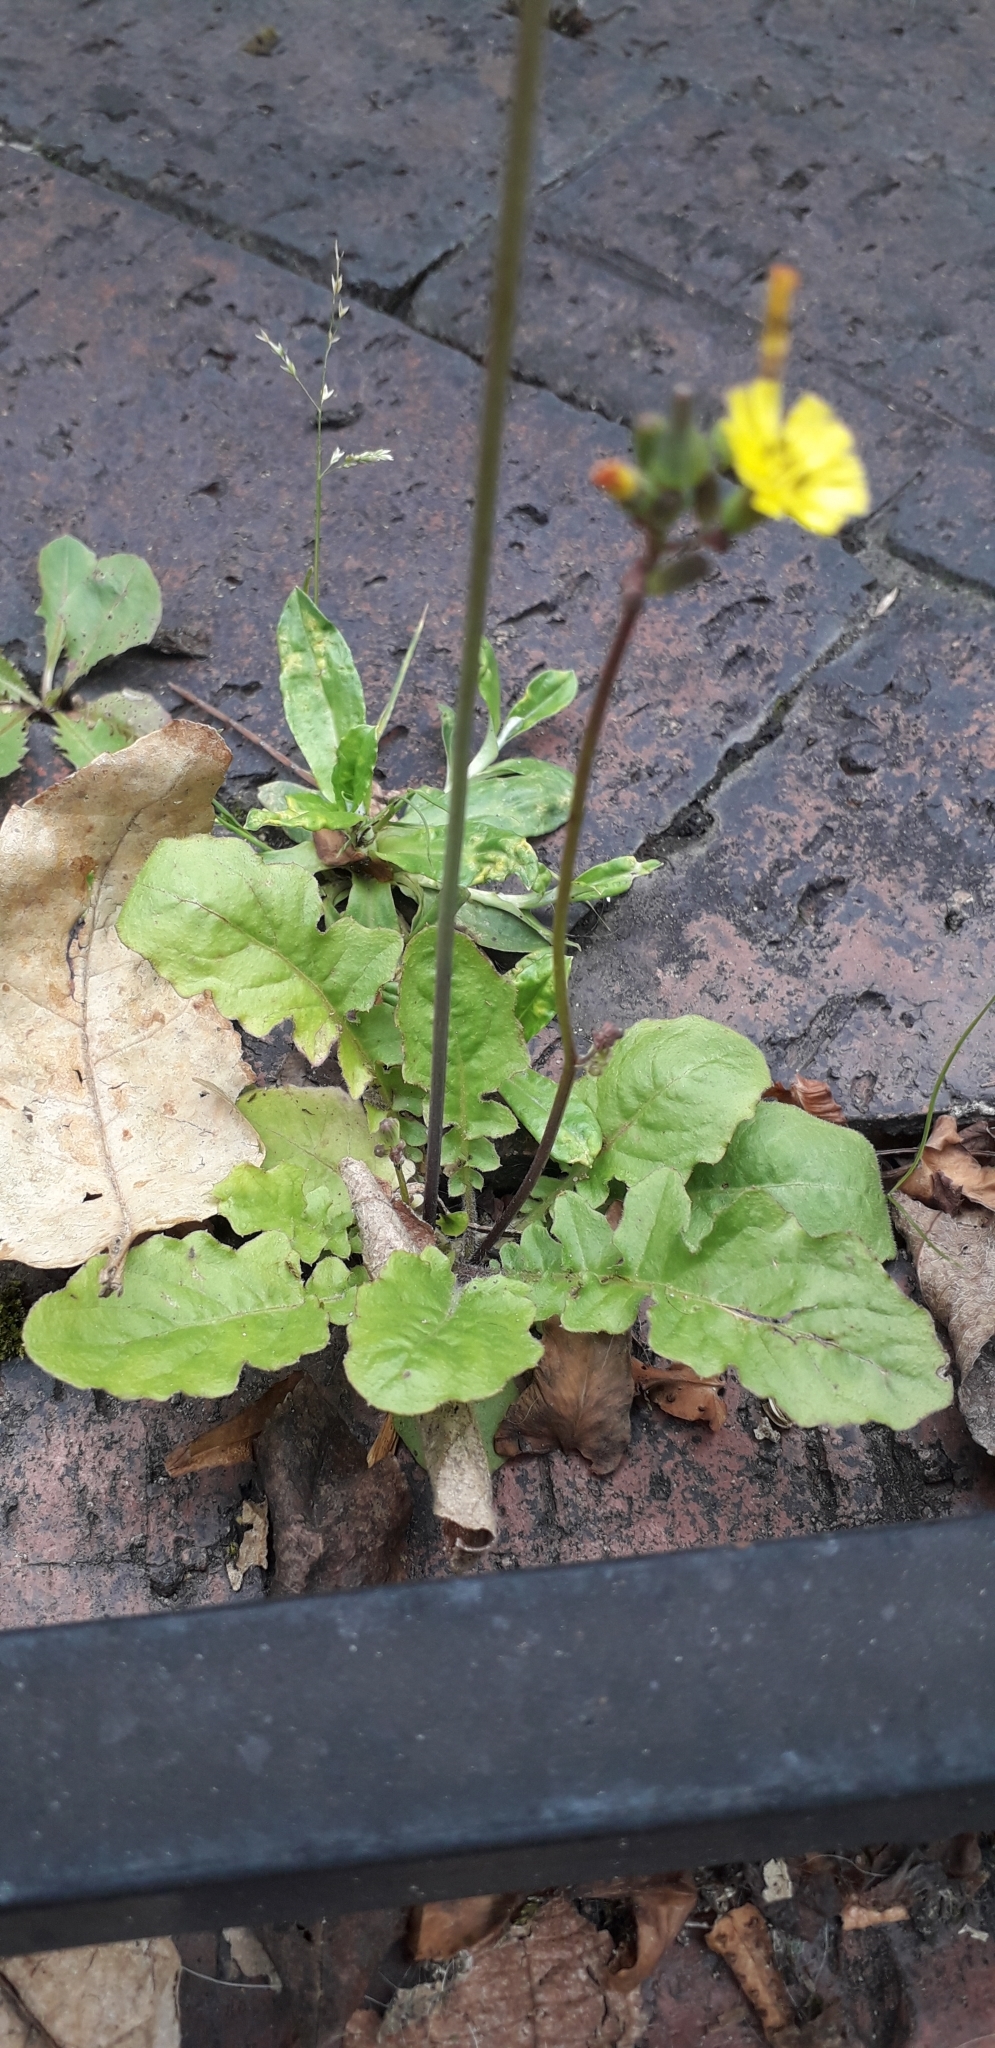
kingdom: Plantae
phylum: Tracheophyta
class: Magnoliopsida
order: Asterales
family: Asteraceae
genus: Youngia
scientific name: Youngia japonica
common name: Oriental false hawksbeard
